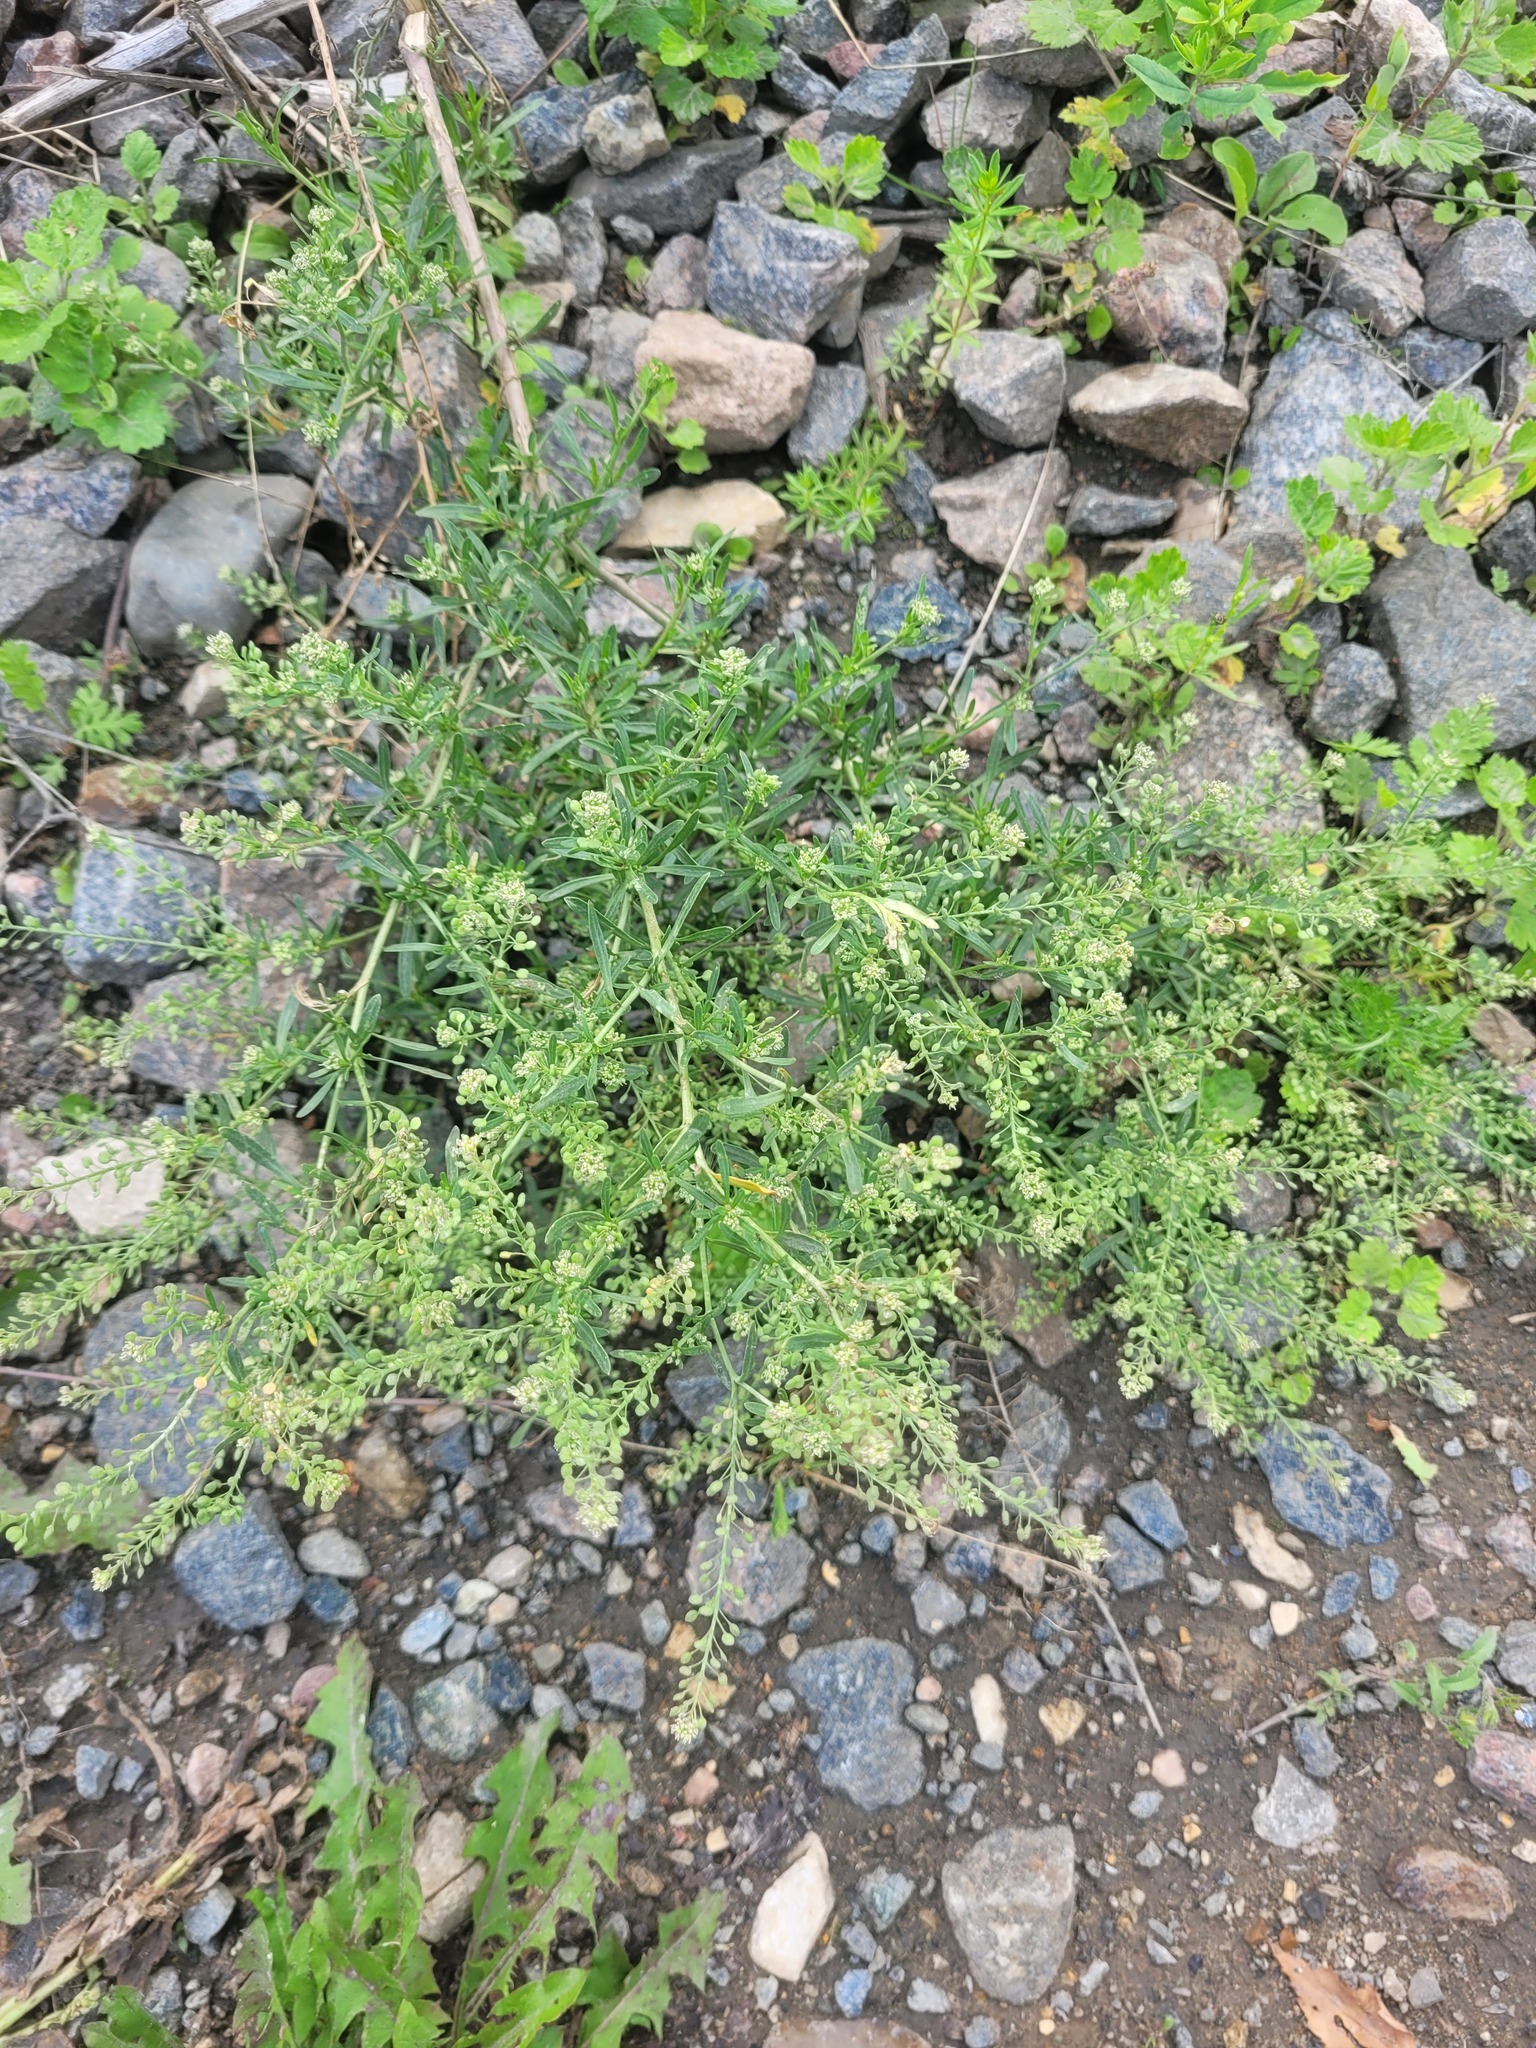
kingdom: Plantae
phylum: Tracheophyta
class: Magnoliopsida
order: Brassicales
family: Brassicaceae
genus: Lepidium
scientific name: Lepidium ruderale
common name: Narrow-leaved pepperwort
